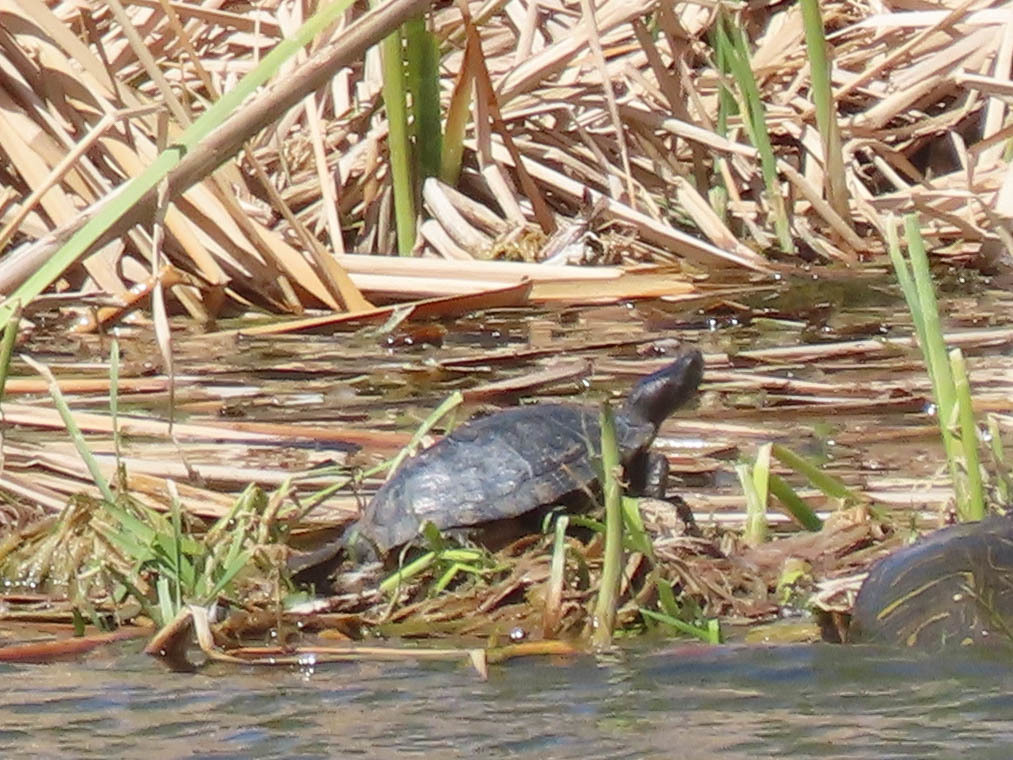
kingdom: Animalia
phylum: Chordata
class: Testudines
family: Emydidae
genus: Trachemys
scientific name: Trachemys scripta
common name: Slider
